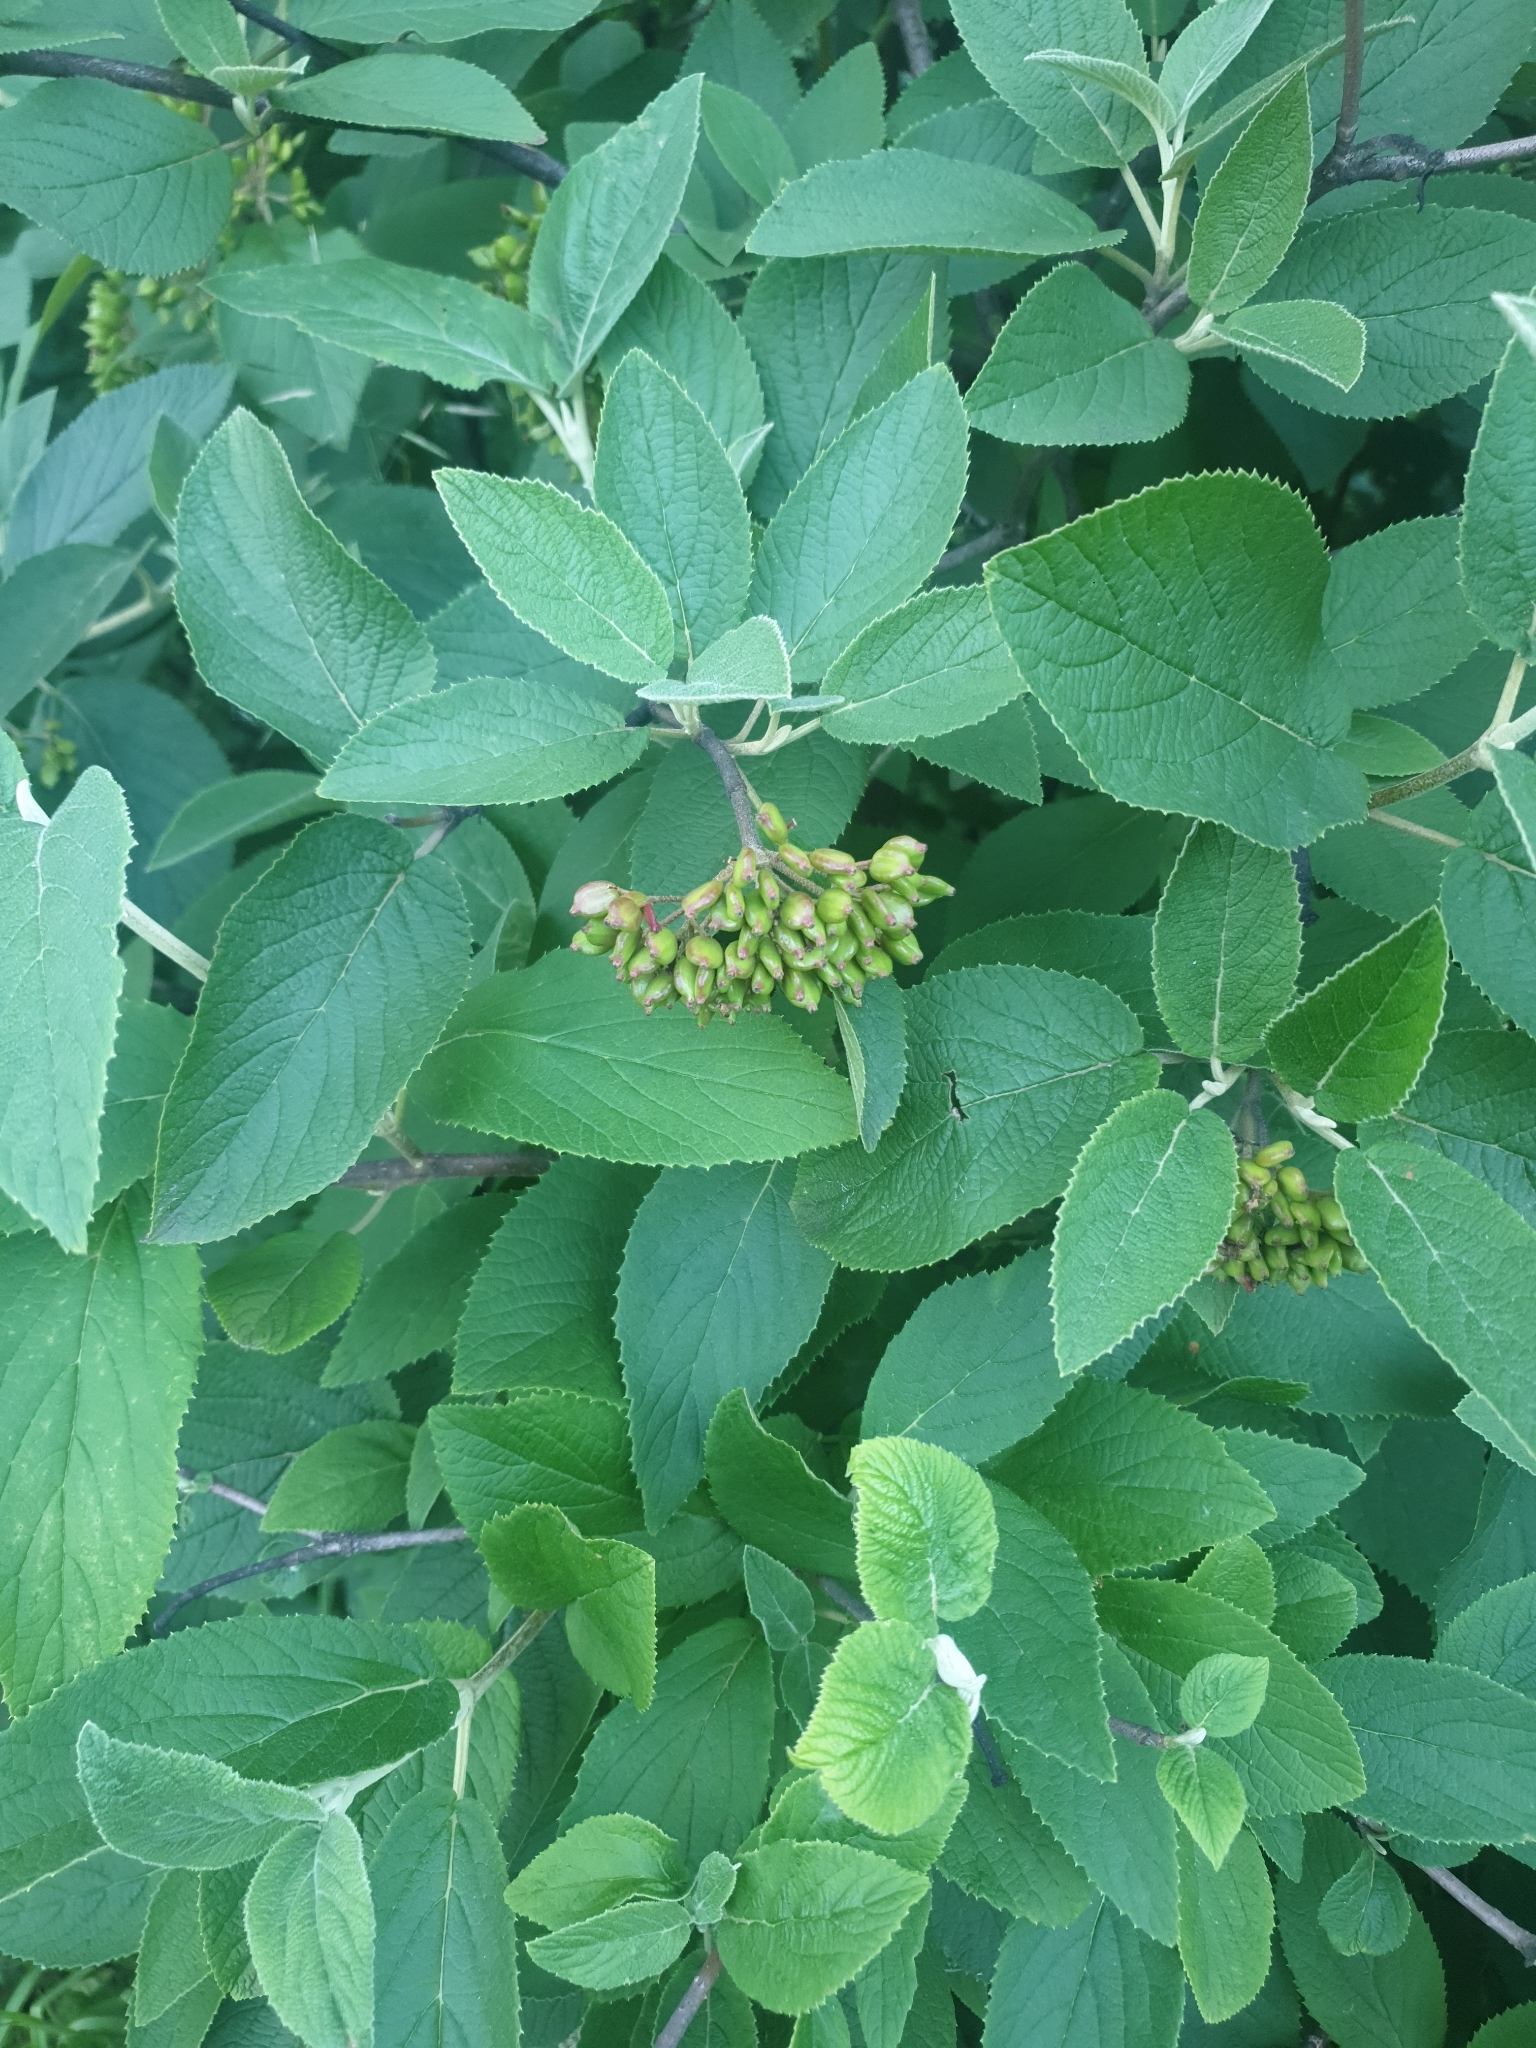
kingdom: Plantae
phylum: Tracheophyta
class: Magnoliopsida
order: Dipsacales
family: Viburnaceae
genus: Viburnum
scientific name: Viburnum lantana
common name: Wayfaring tree
